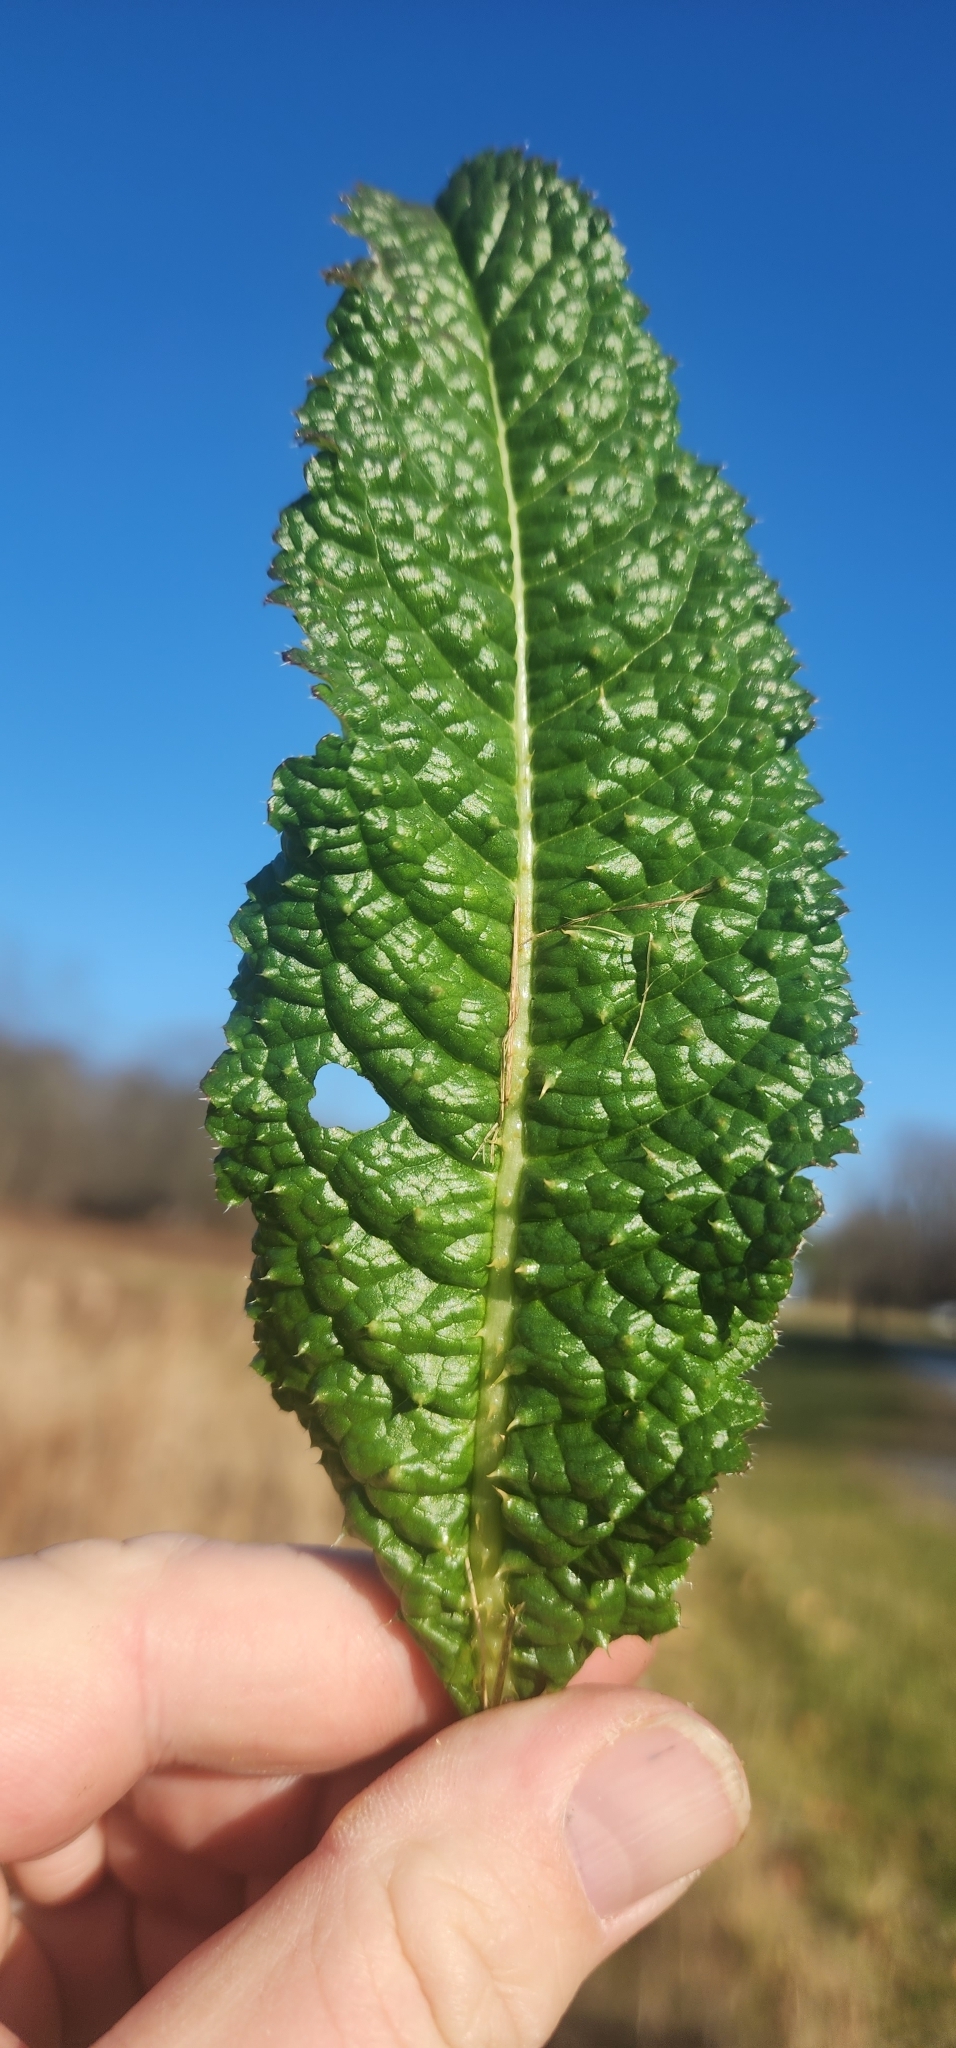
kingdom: Plantae
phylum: Tracheophyta
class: Magnoliopsida
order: Dipsacales
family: Caprifoliaceae
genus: Dipsacus
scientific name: Dipsacus fullonum
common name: Teasel
